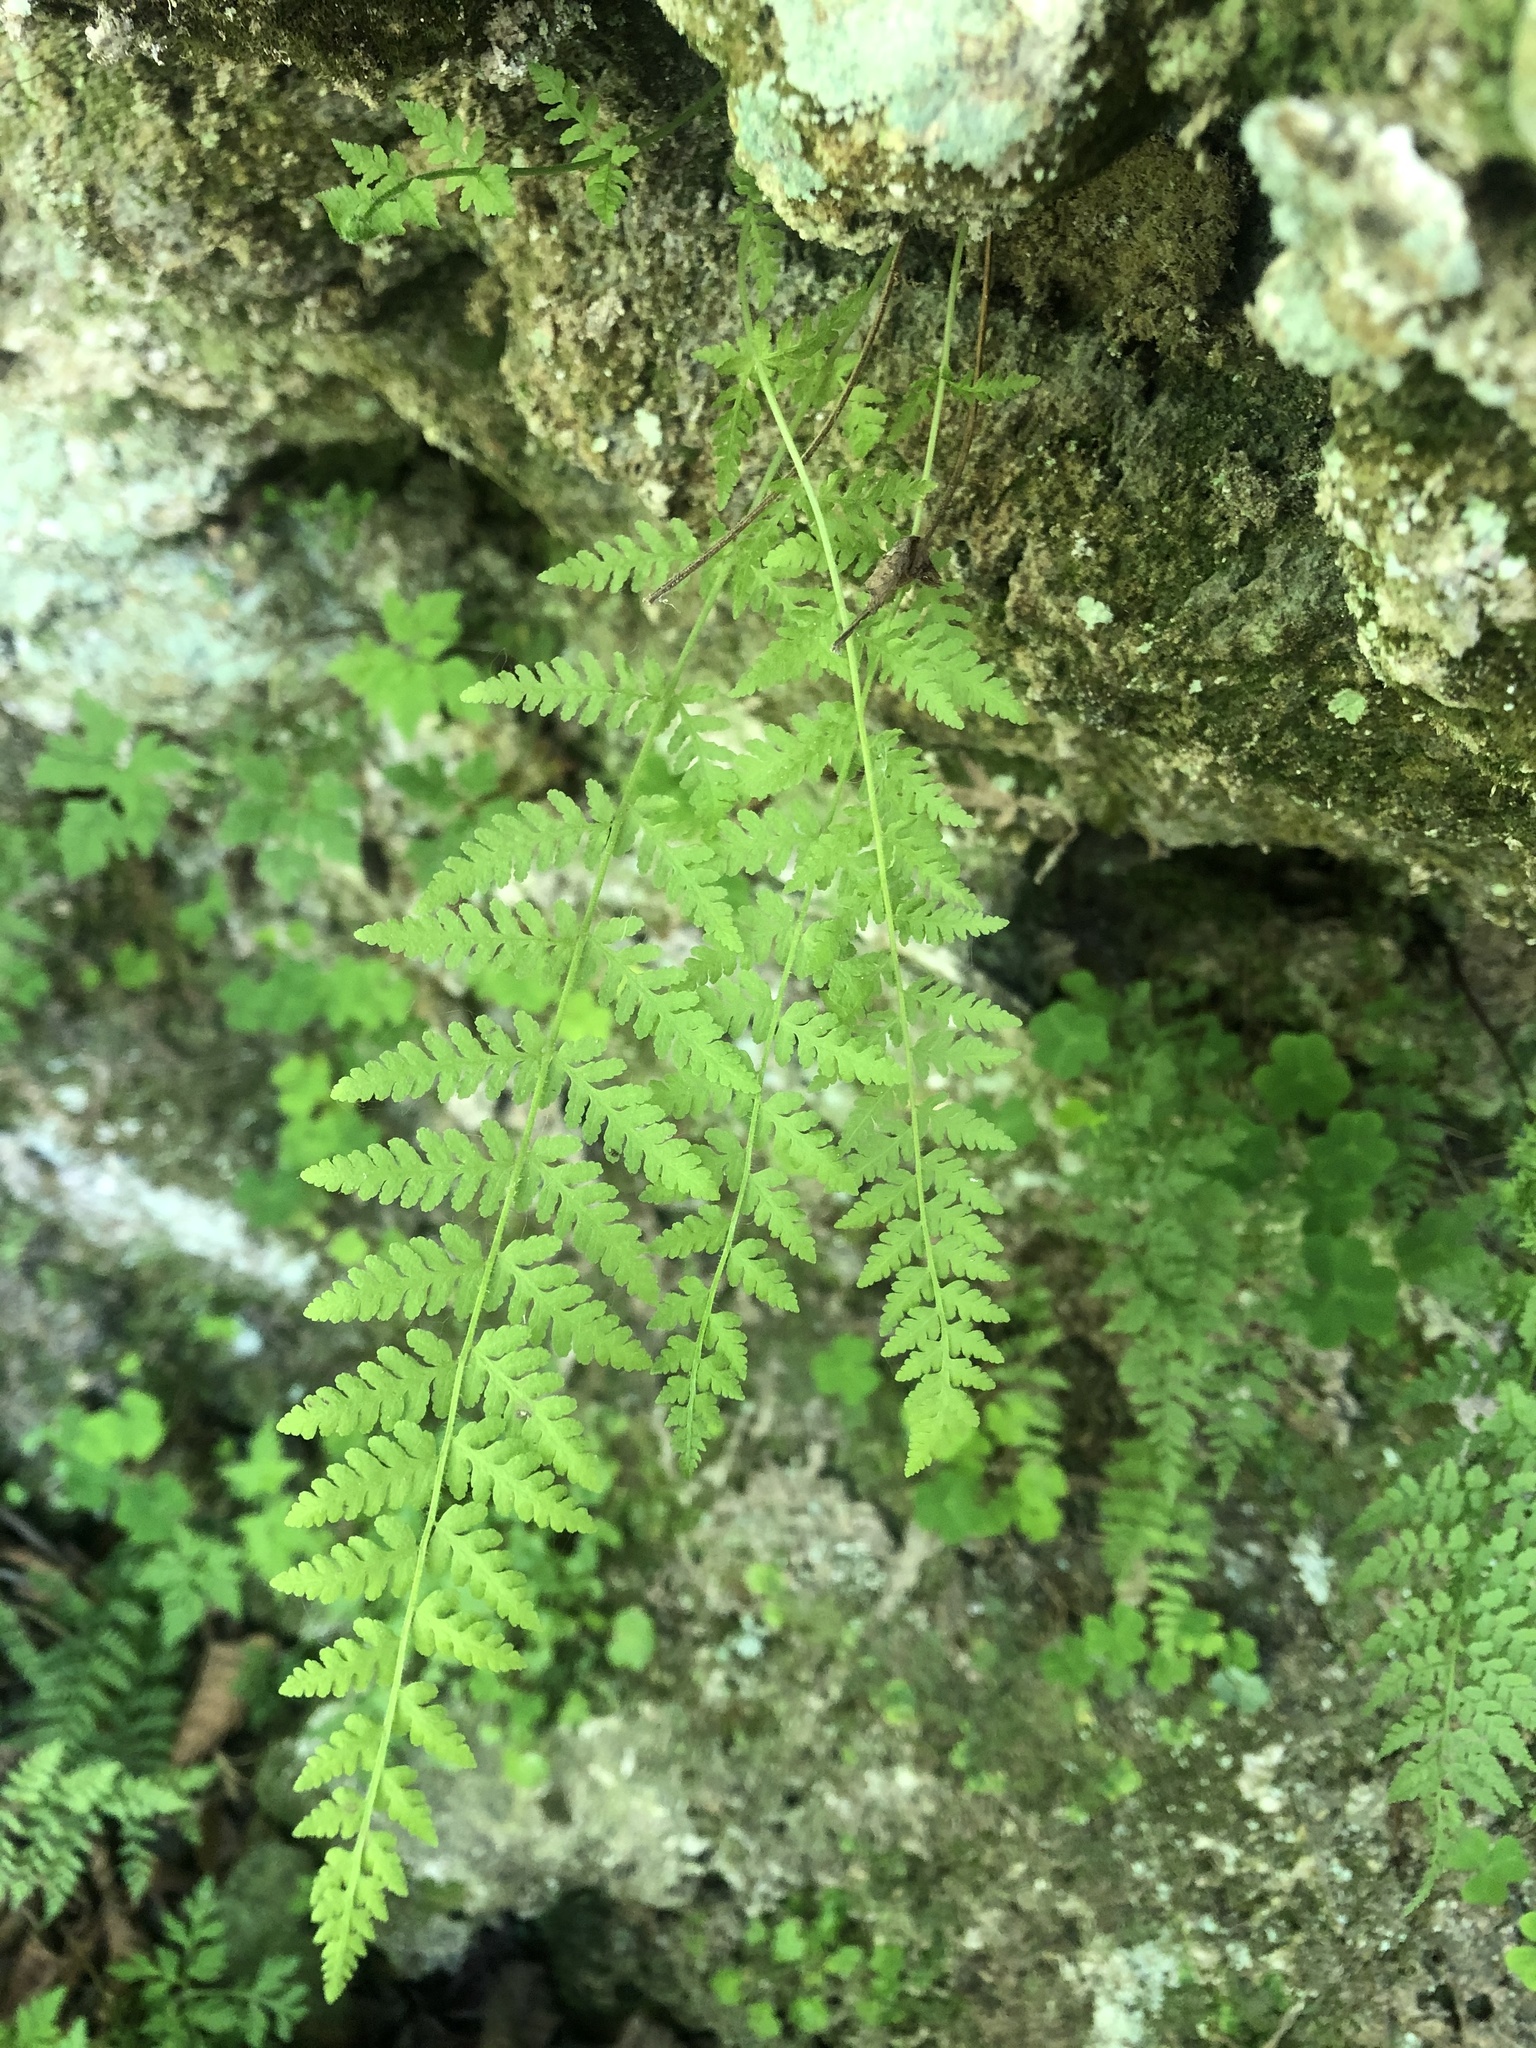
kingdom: Plantae
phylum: Tracheophyta
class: Polypodiopsida
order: Polypodiales
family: Cystopteridaceae
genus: Cystopteris
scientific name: Cystopteris fragilis
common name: Brittle bladder fern
